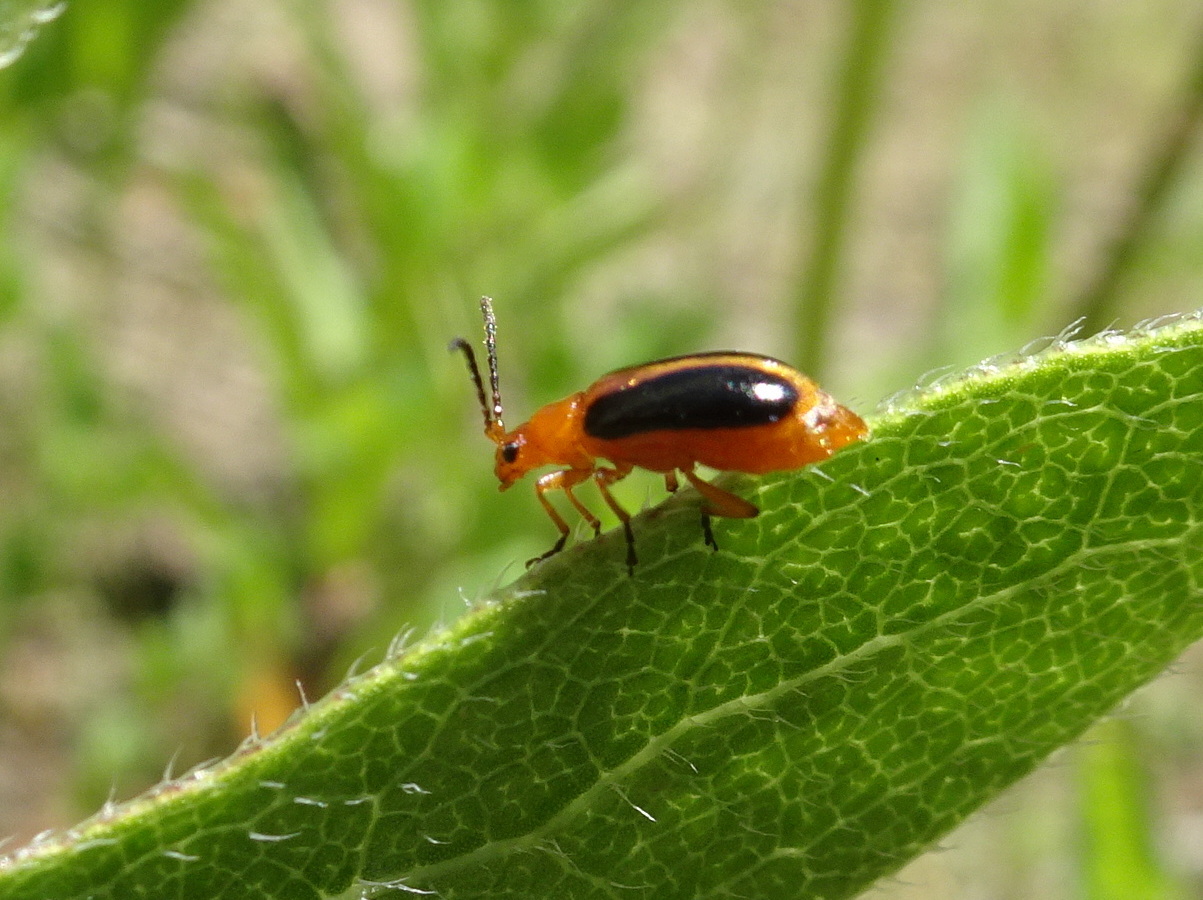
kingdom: Animalia
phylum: Arthropoda
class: Insecta
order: Coleoptera
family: Chrysomelidae
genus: Phyllobrotica
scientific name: Phyllobrotica limbata
